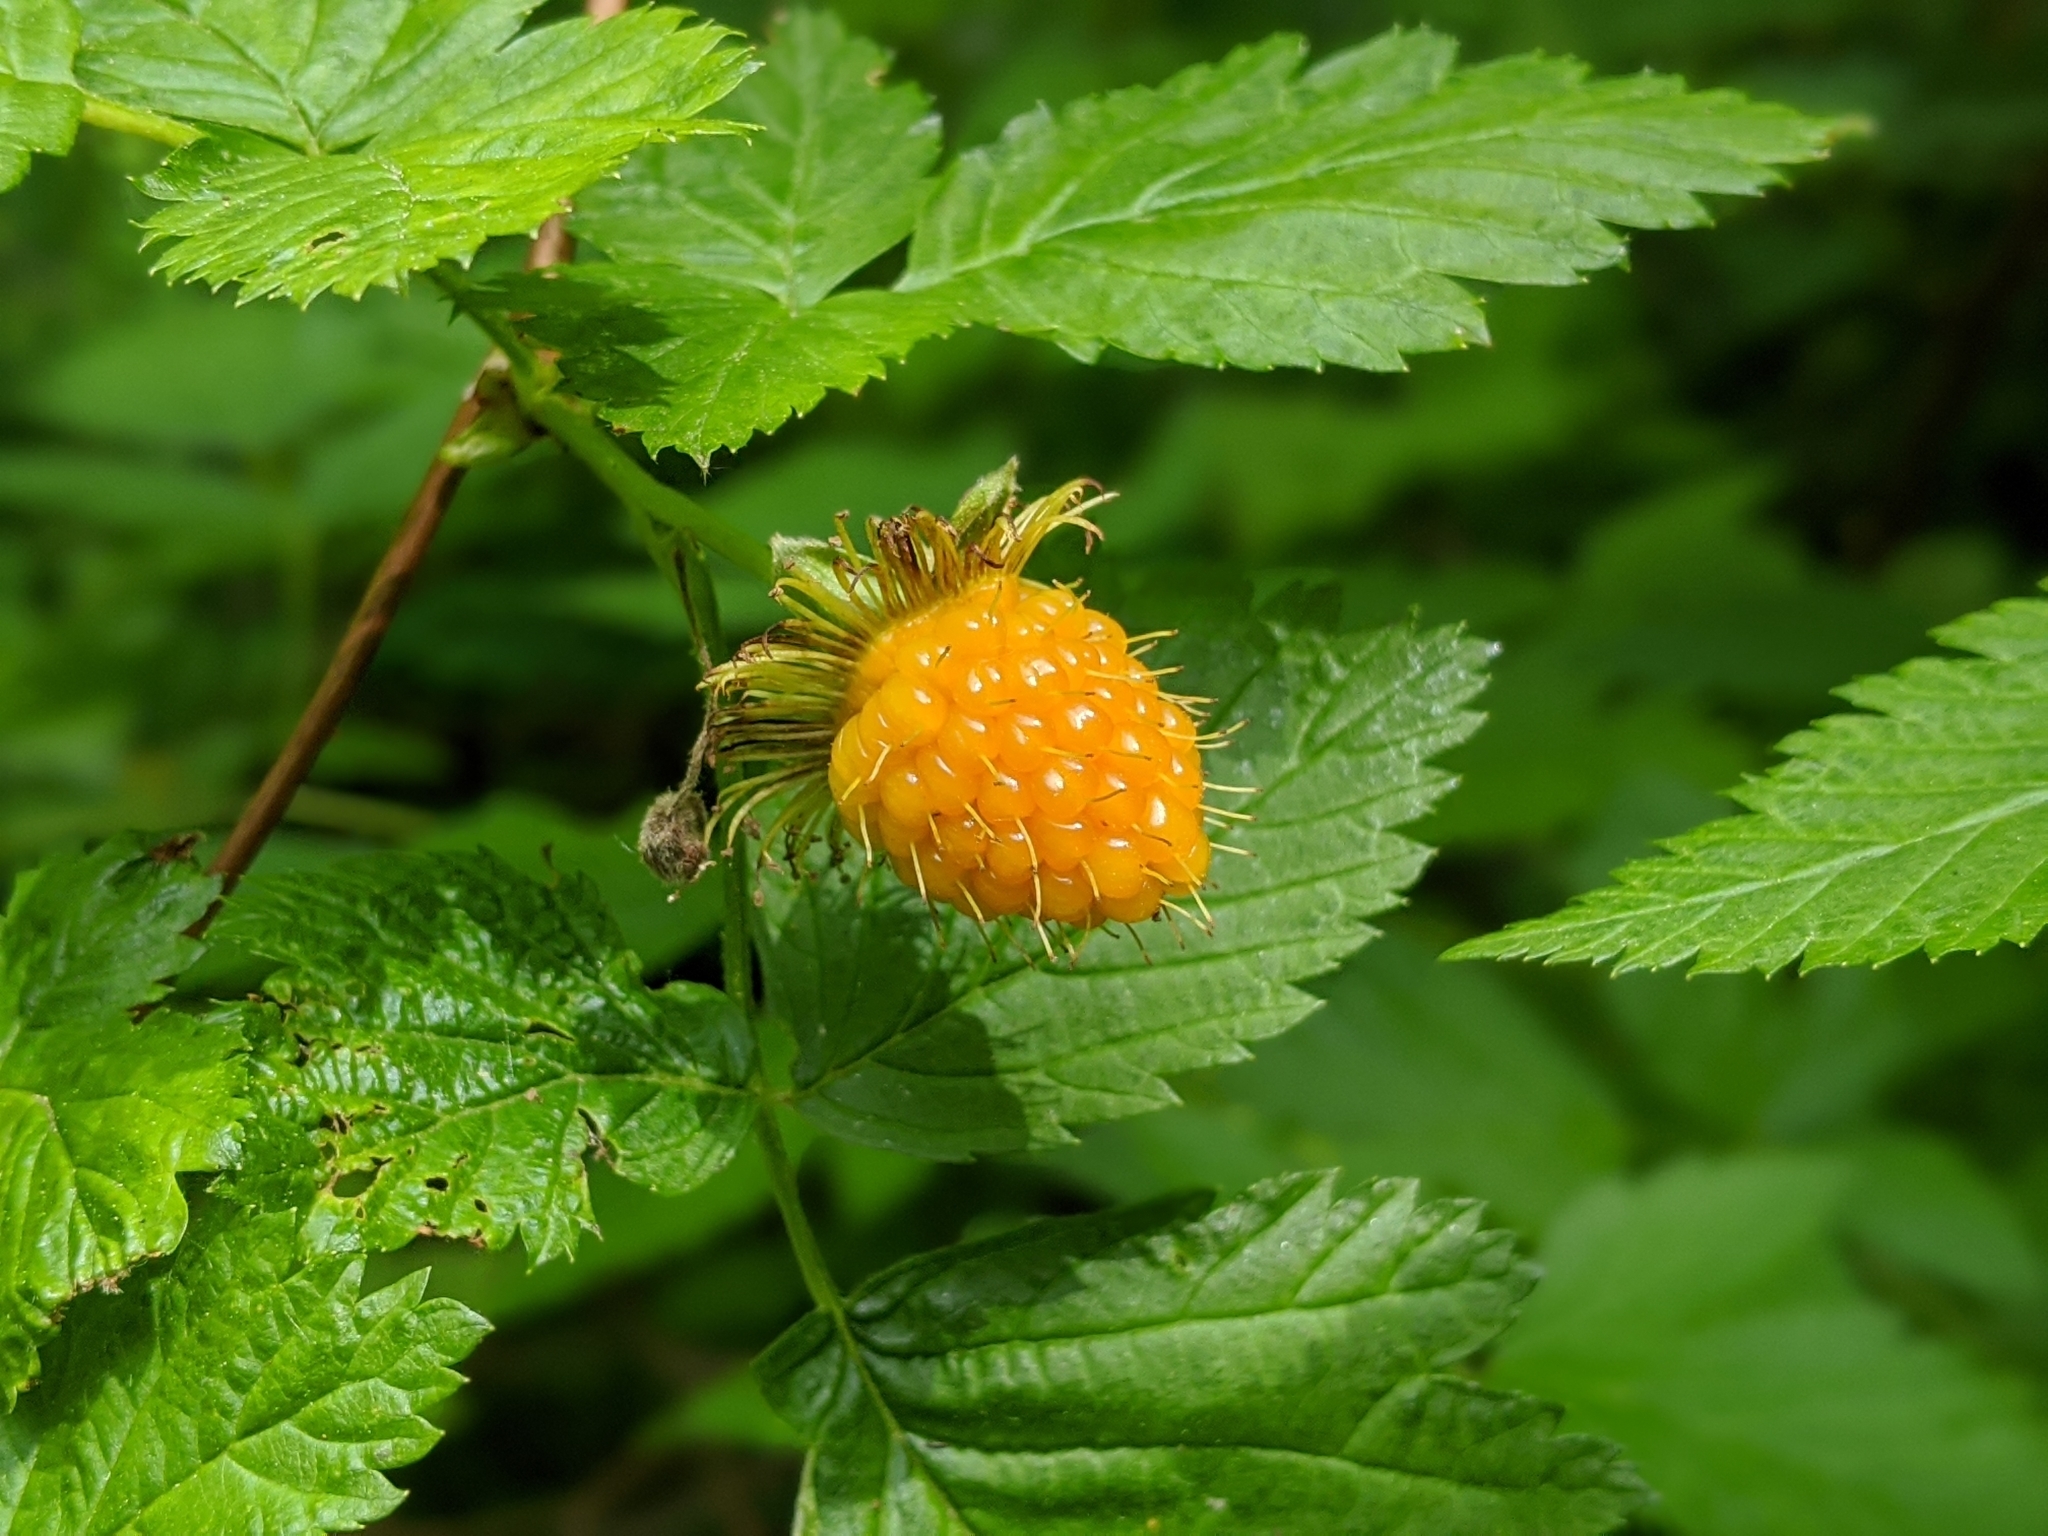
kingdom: Plantae
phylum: Tracheophyta
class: Magnoliopsida
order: Rosales
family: Rosaceae
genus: Rubus
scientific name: Rubus spectabilis
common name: Salmonberry
